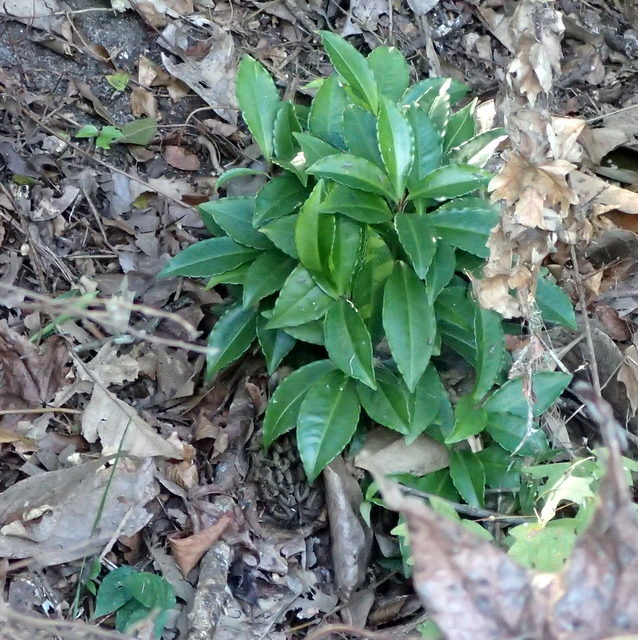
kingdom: Plantae
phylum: Tracheophyta
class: Magnoliopsida
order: Ericales
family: Primulaceae
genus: Ardisia
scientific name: Ardisia crenata
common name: Hen's eyes
